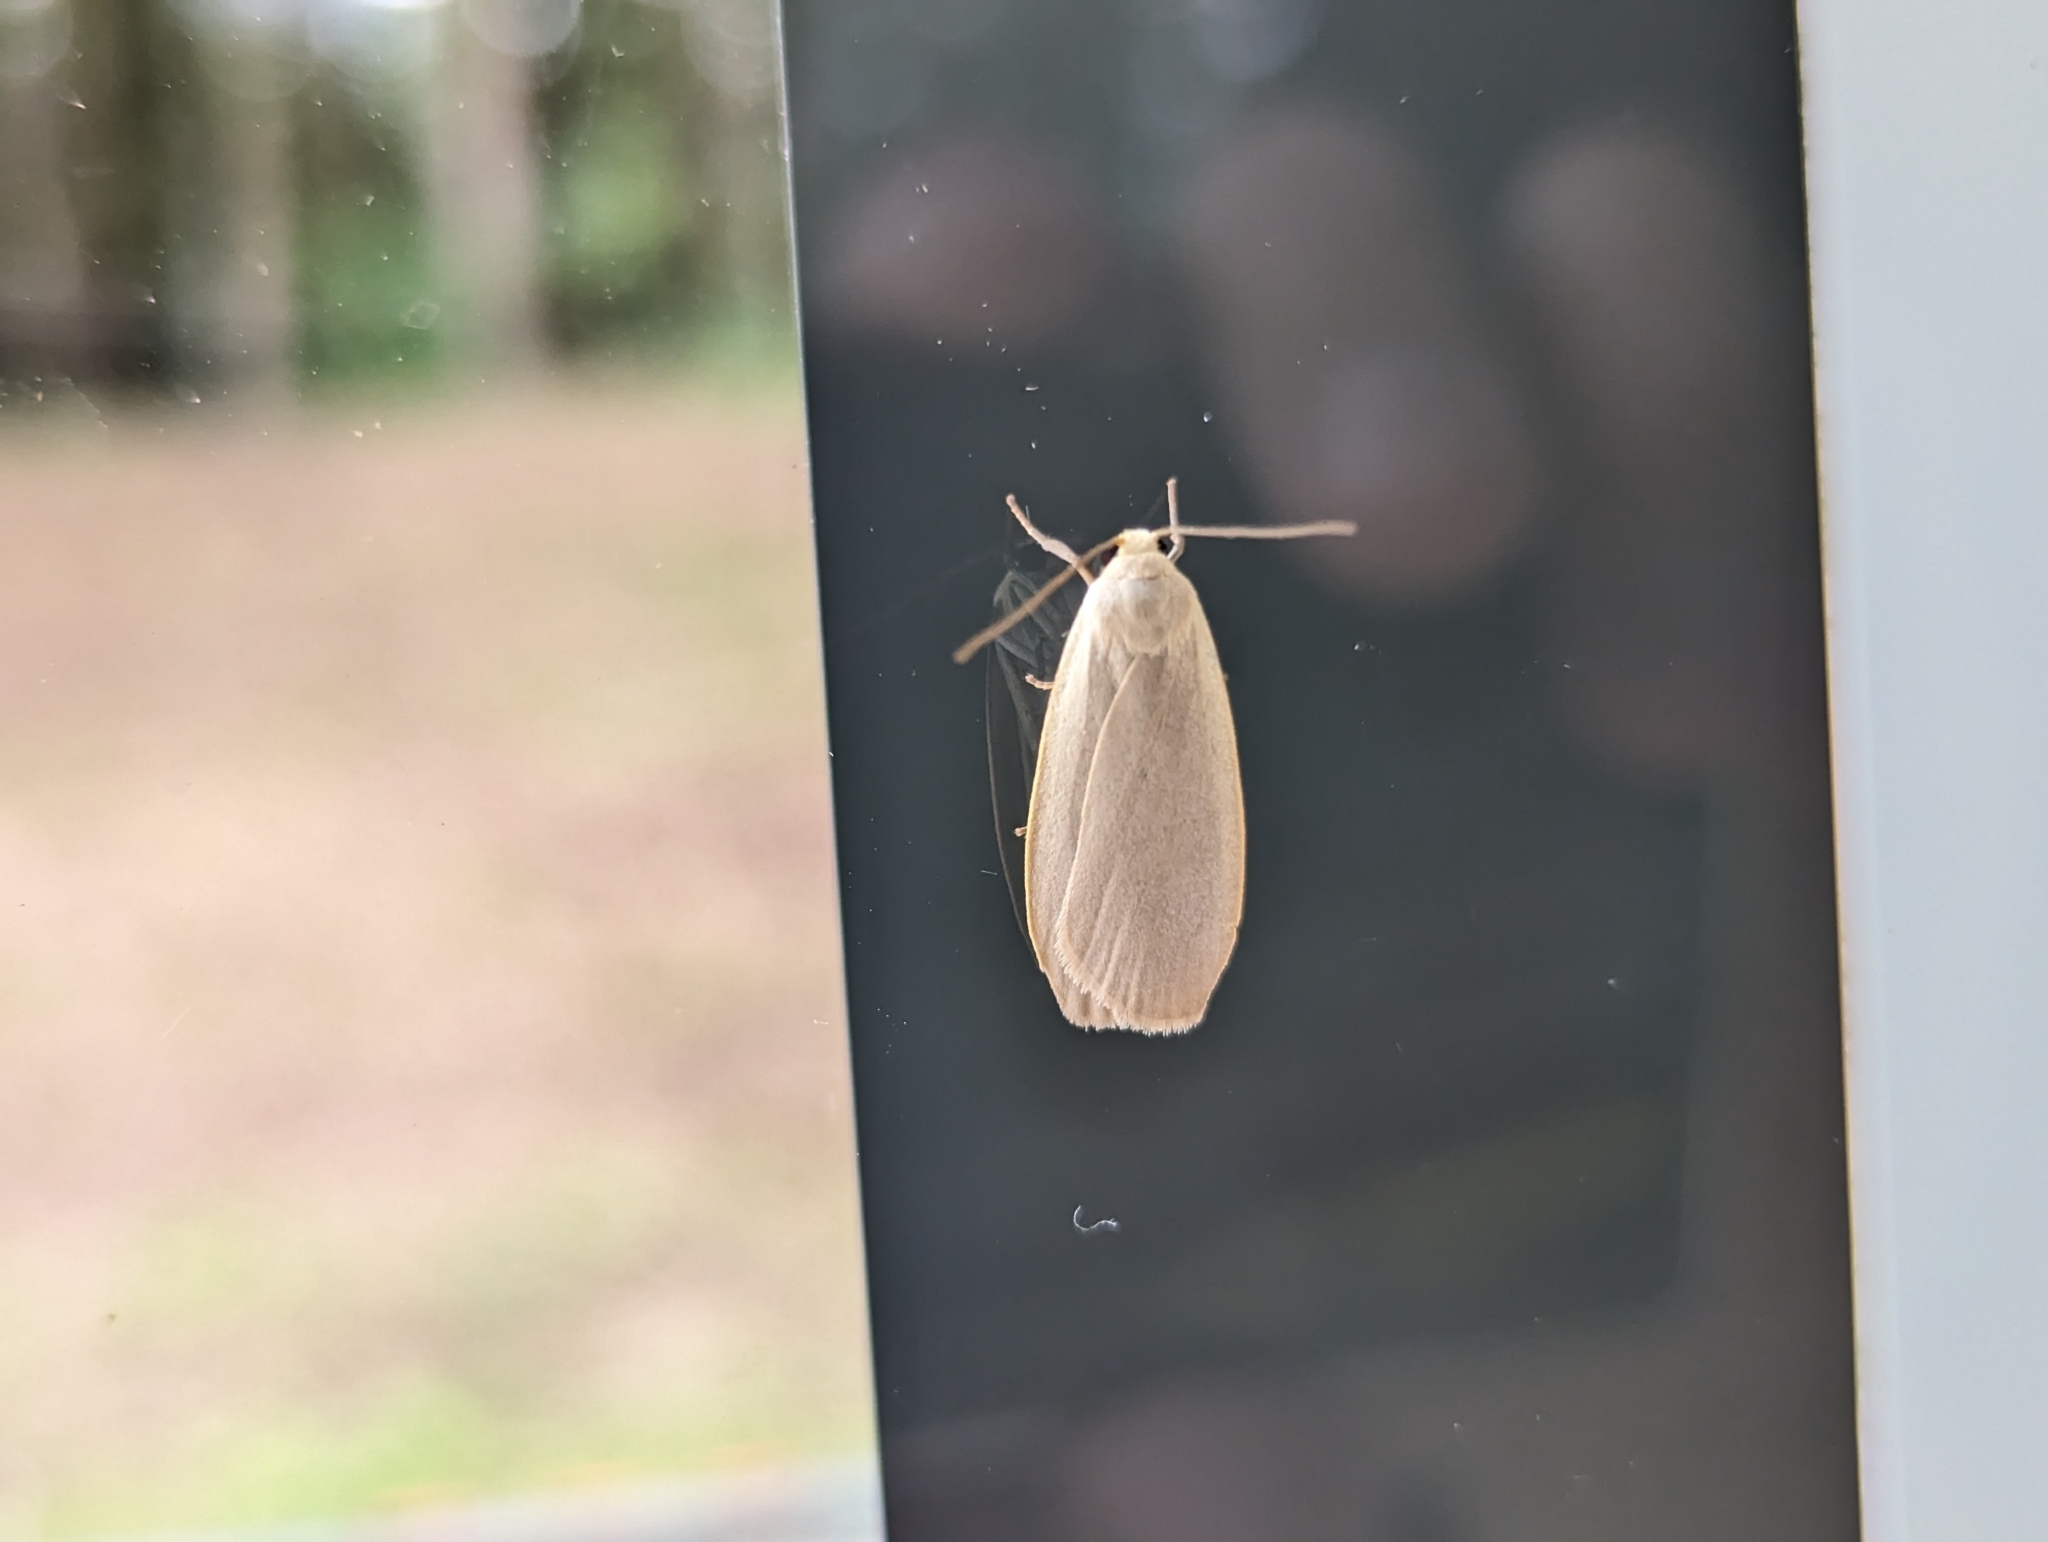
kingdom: Animalia
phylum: Arthropoda
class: Insecta
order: Lepidoptera
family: Erebidae
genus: Collita
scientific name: Collita griseola
